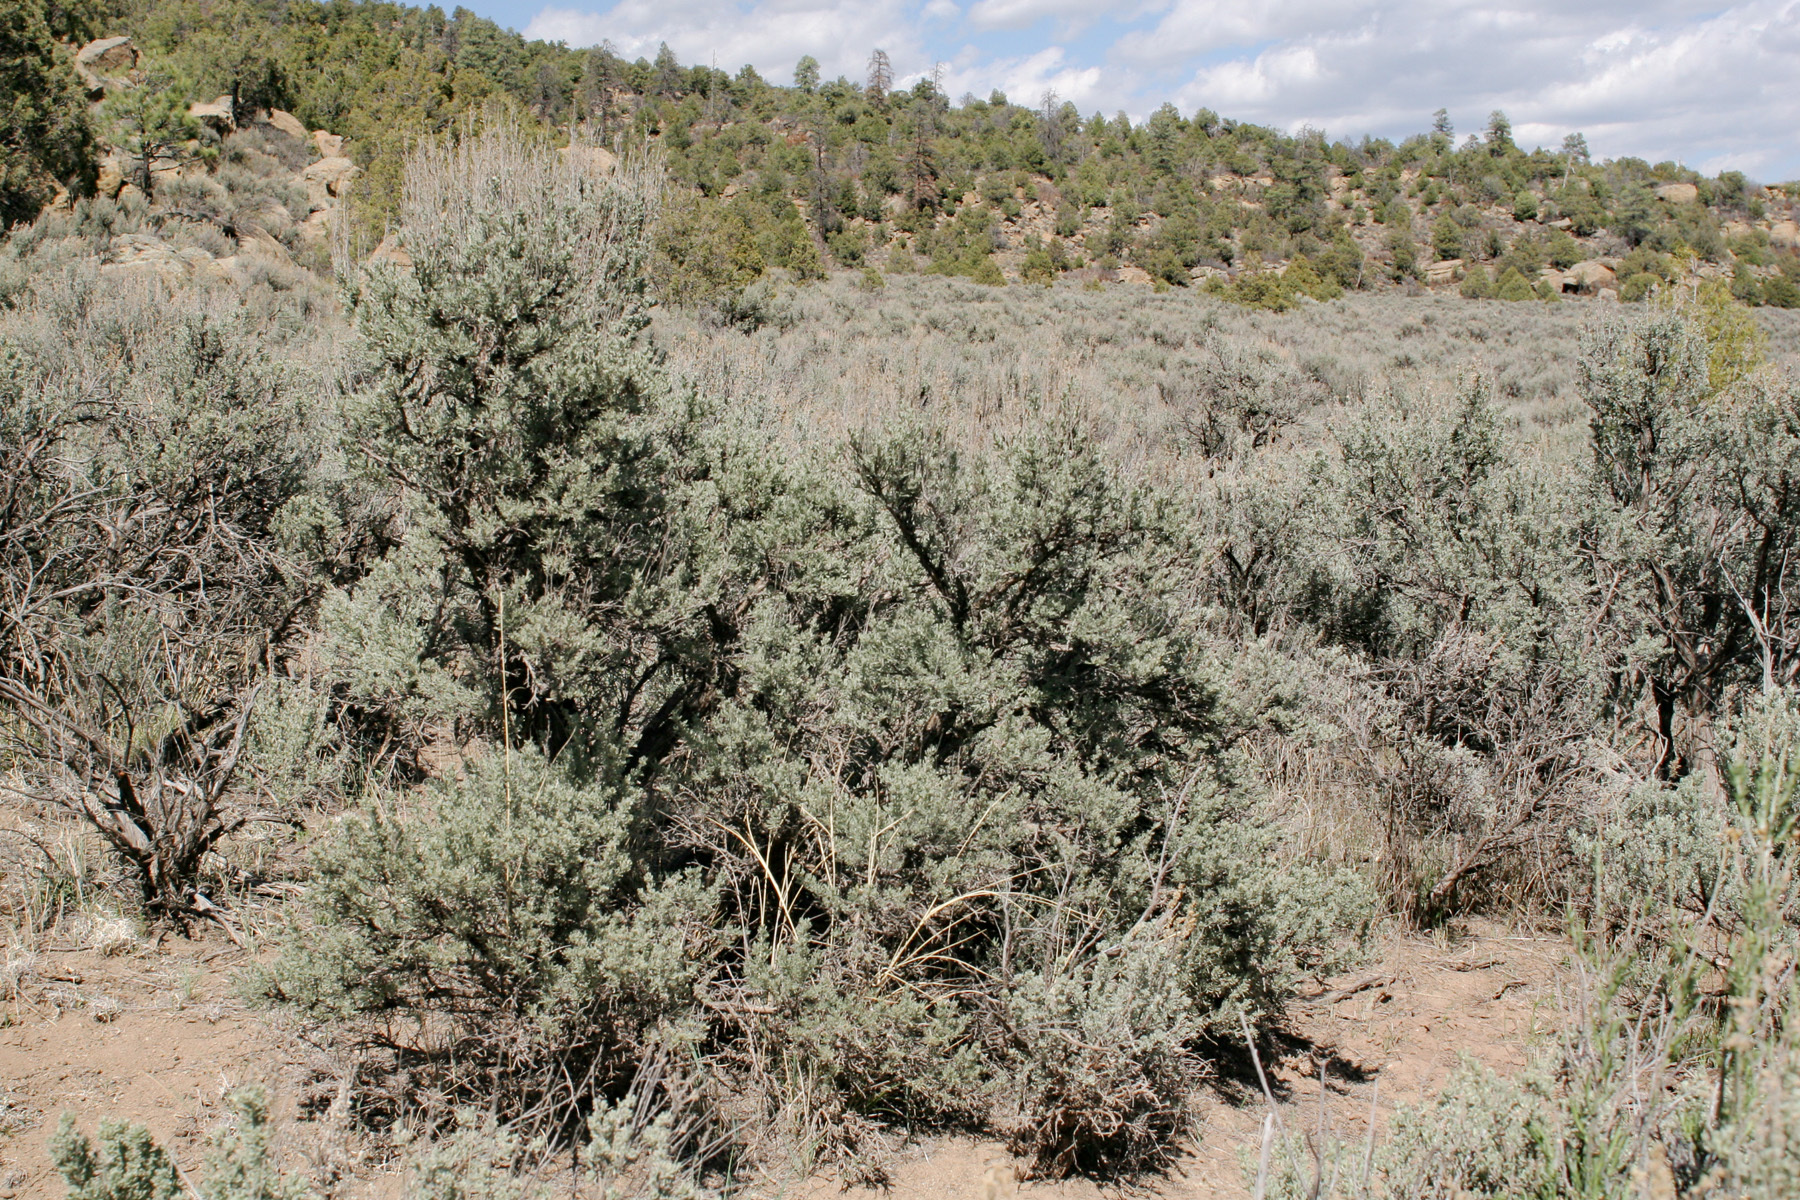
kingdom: Plantae
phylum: Tracheophyta
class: Magnoliopsida
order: Asterales
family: Asteraceae
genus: Artemisia
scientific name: Artemisia tridentata
